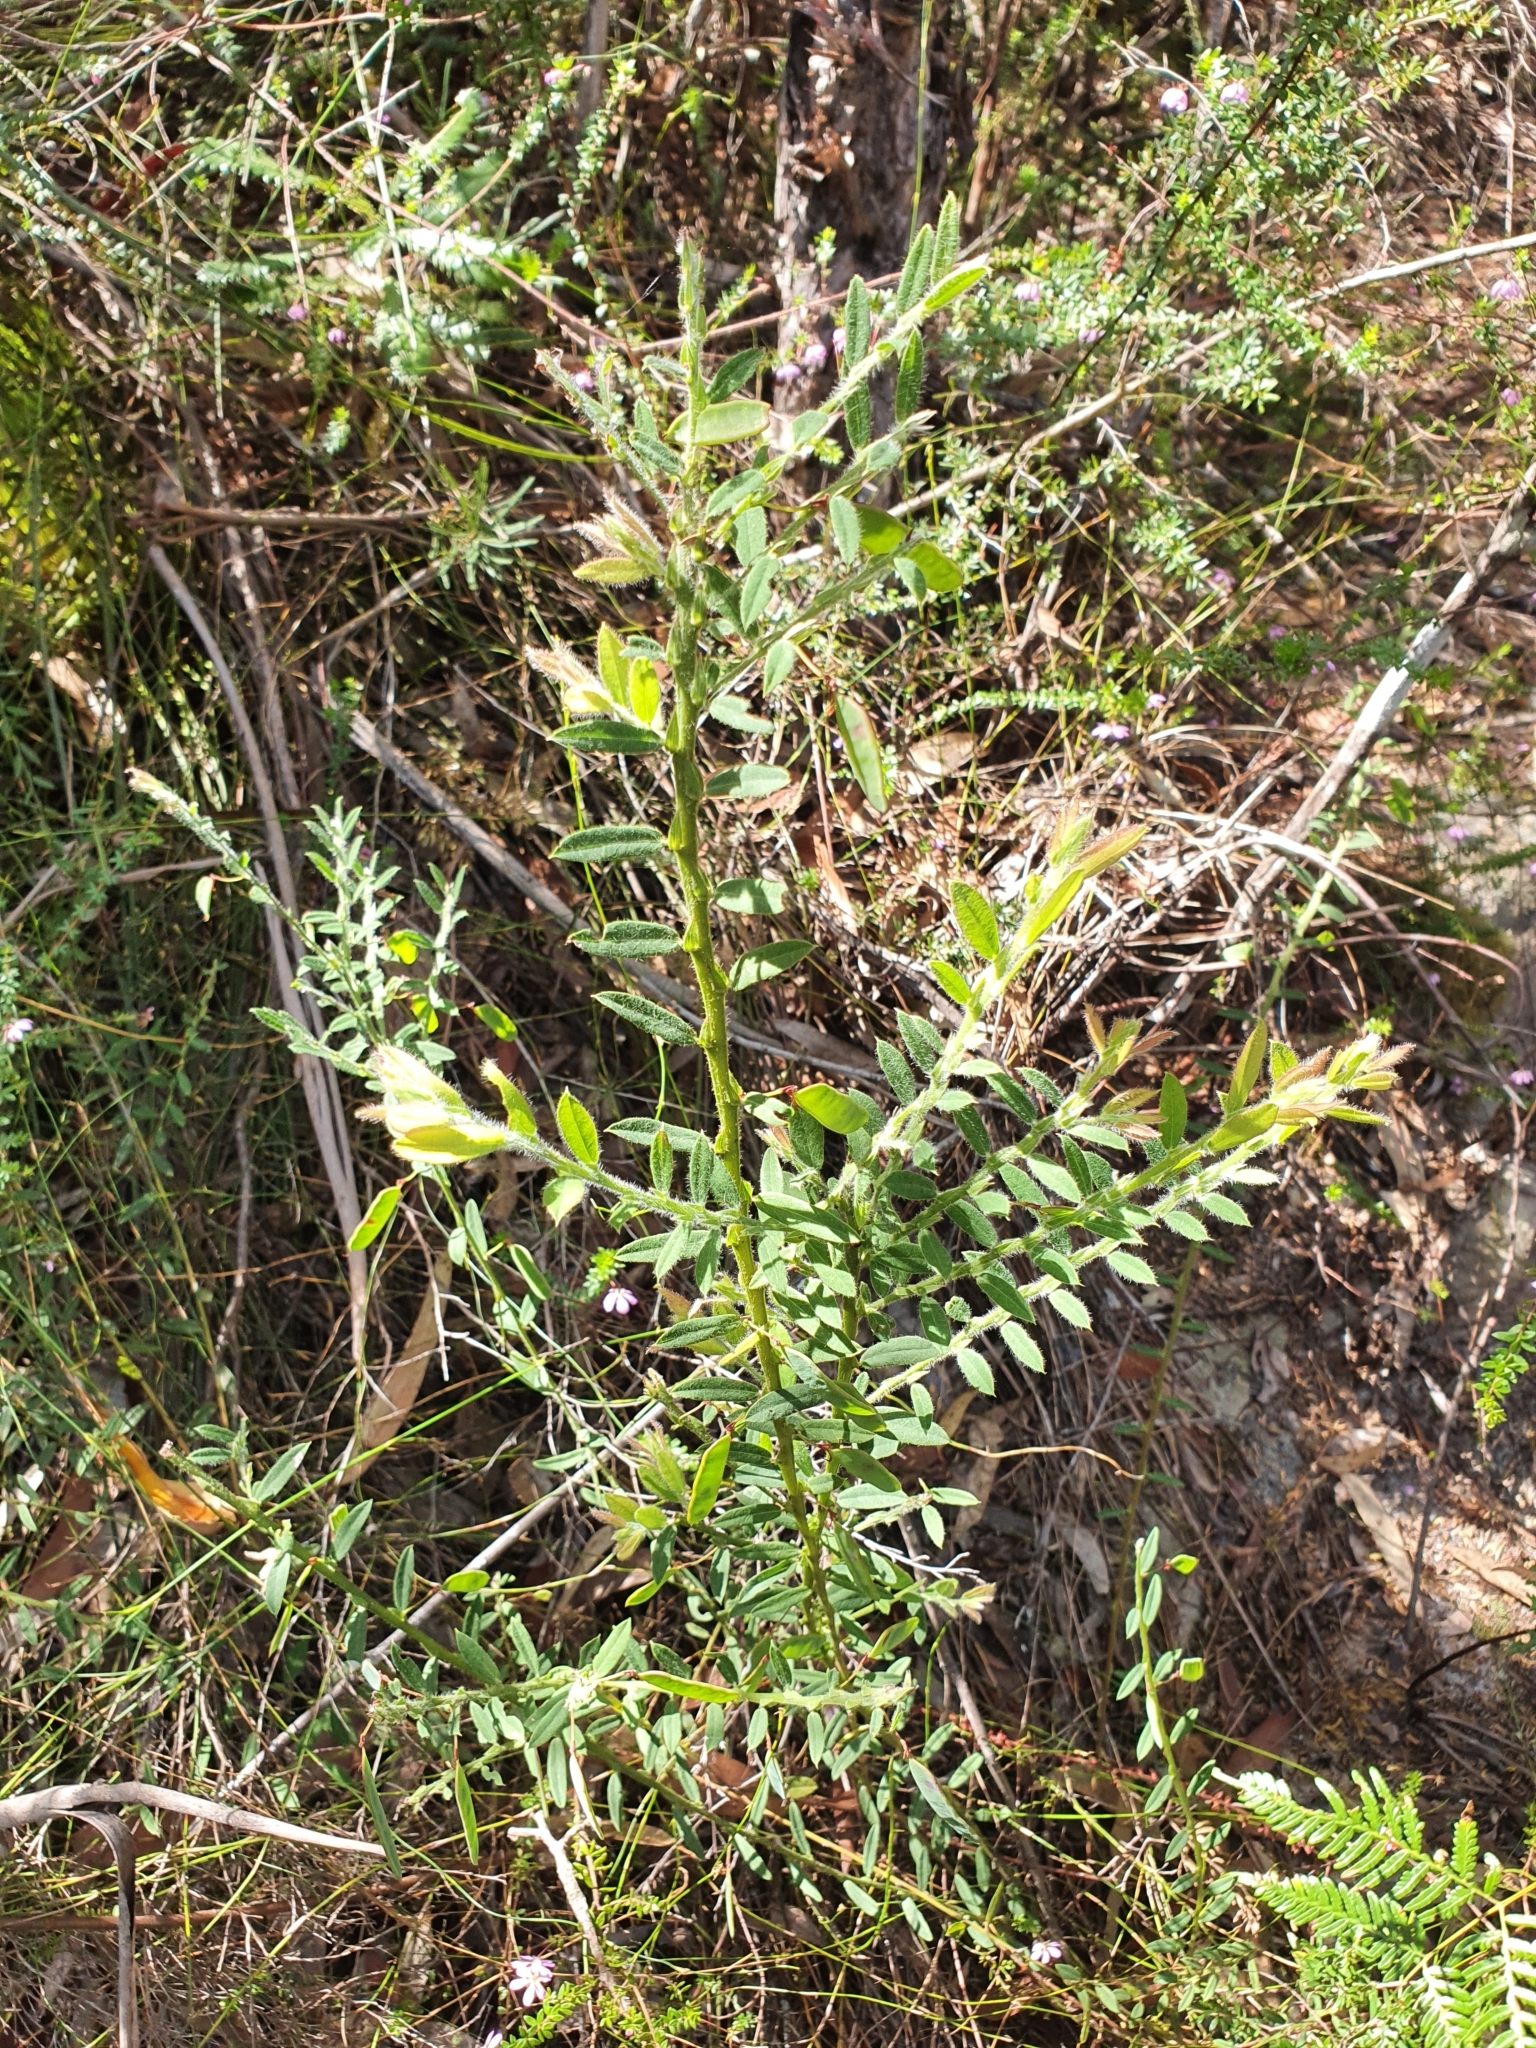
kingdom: Plantae
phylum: Tracheophyta
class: Magnoliopsida
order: Fabales
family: Fabaceae
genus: Bossiaea
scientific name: Bossiaea stephensonii
